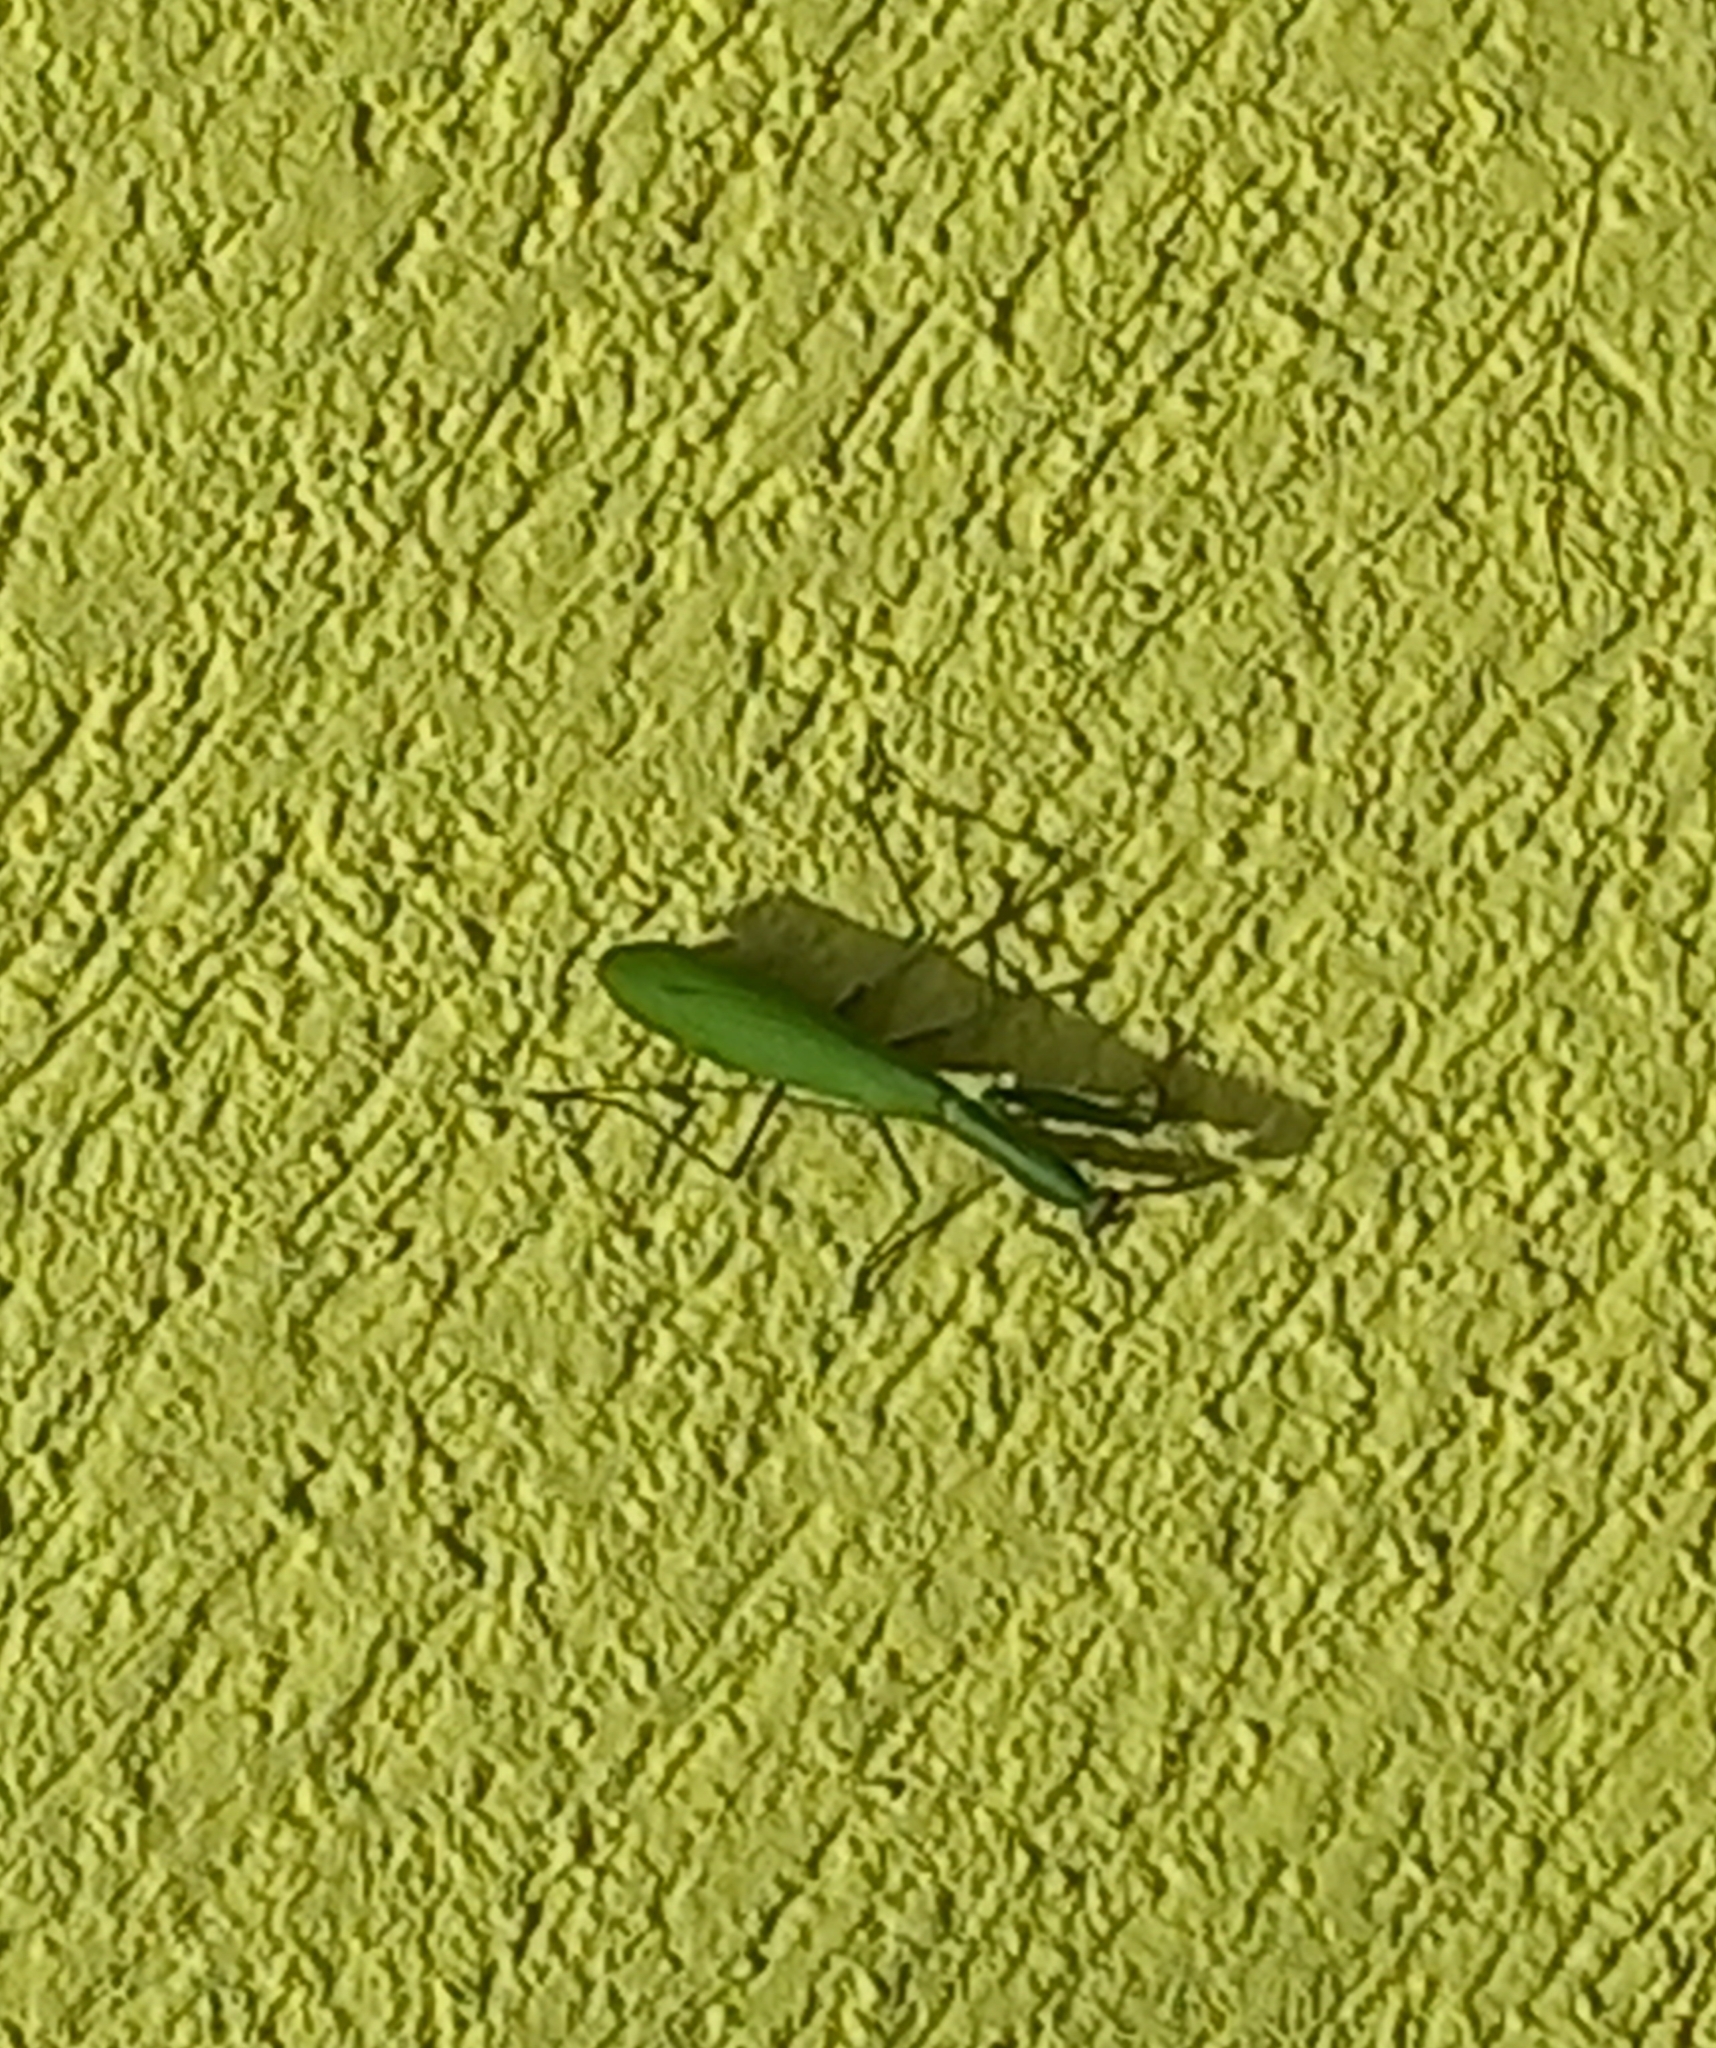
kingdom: Animalia
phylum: Arthropoda
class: Insecta
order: Mantodea
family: Mantidae
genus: Mantis
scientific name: Mantis religiosa
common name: Praying mantis
